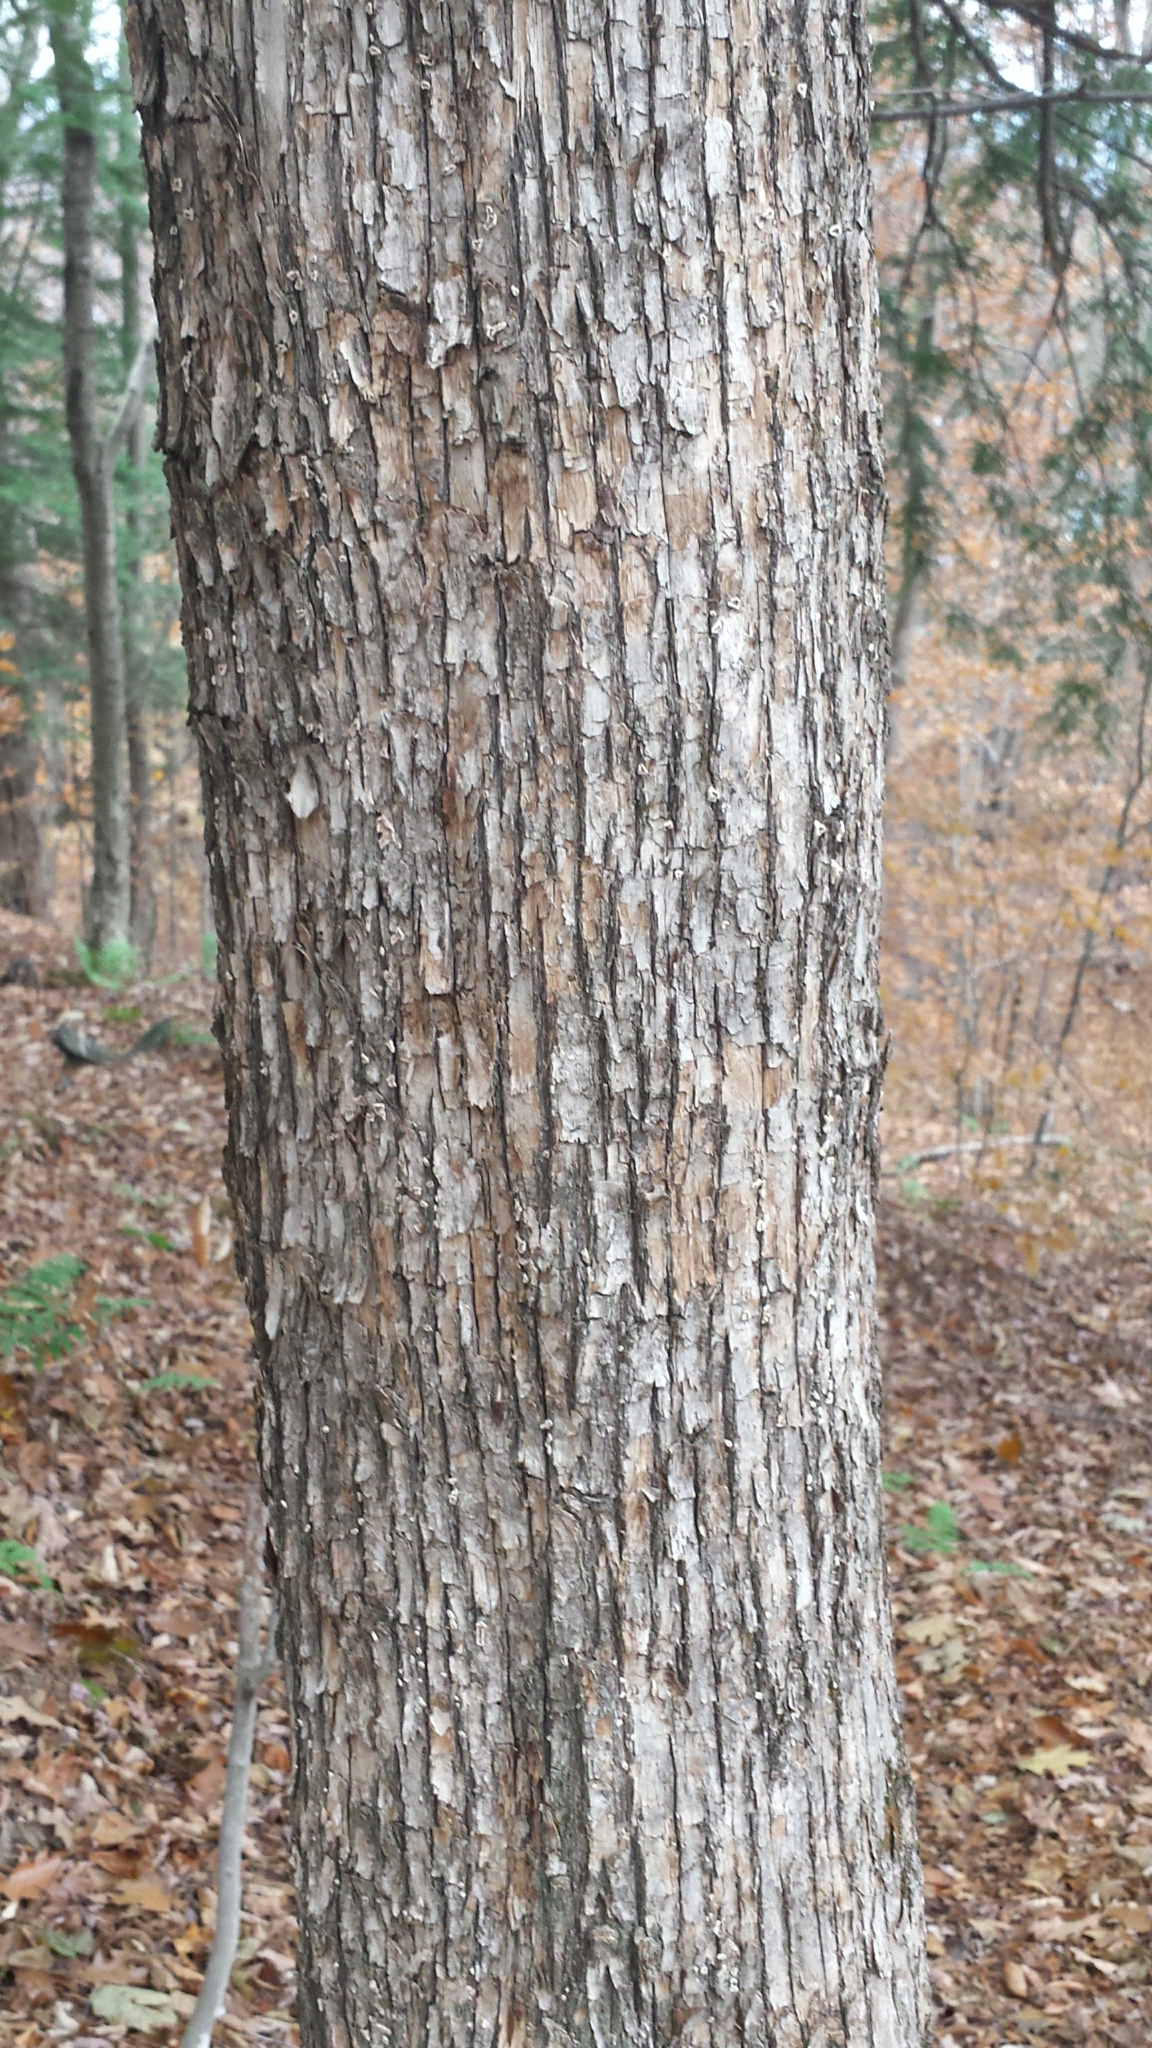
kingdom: Plantae
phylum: Tracheophyta
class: Magnoliopsida
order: Fagales
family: Betulaceae
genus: Ostrya
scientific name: Ostrya virginiana
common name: Ironwood
